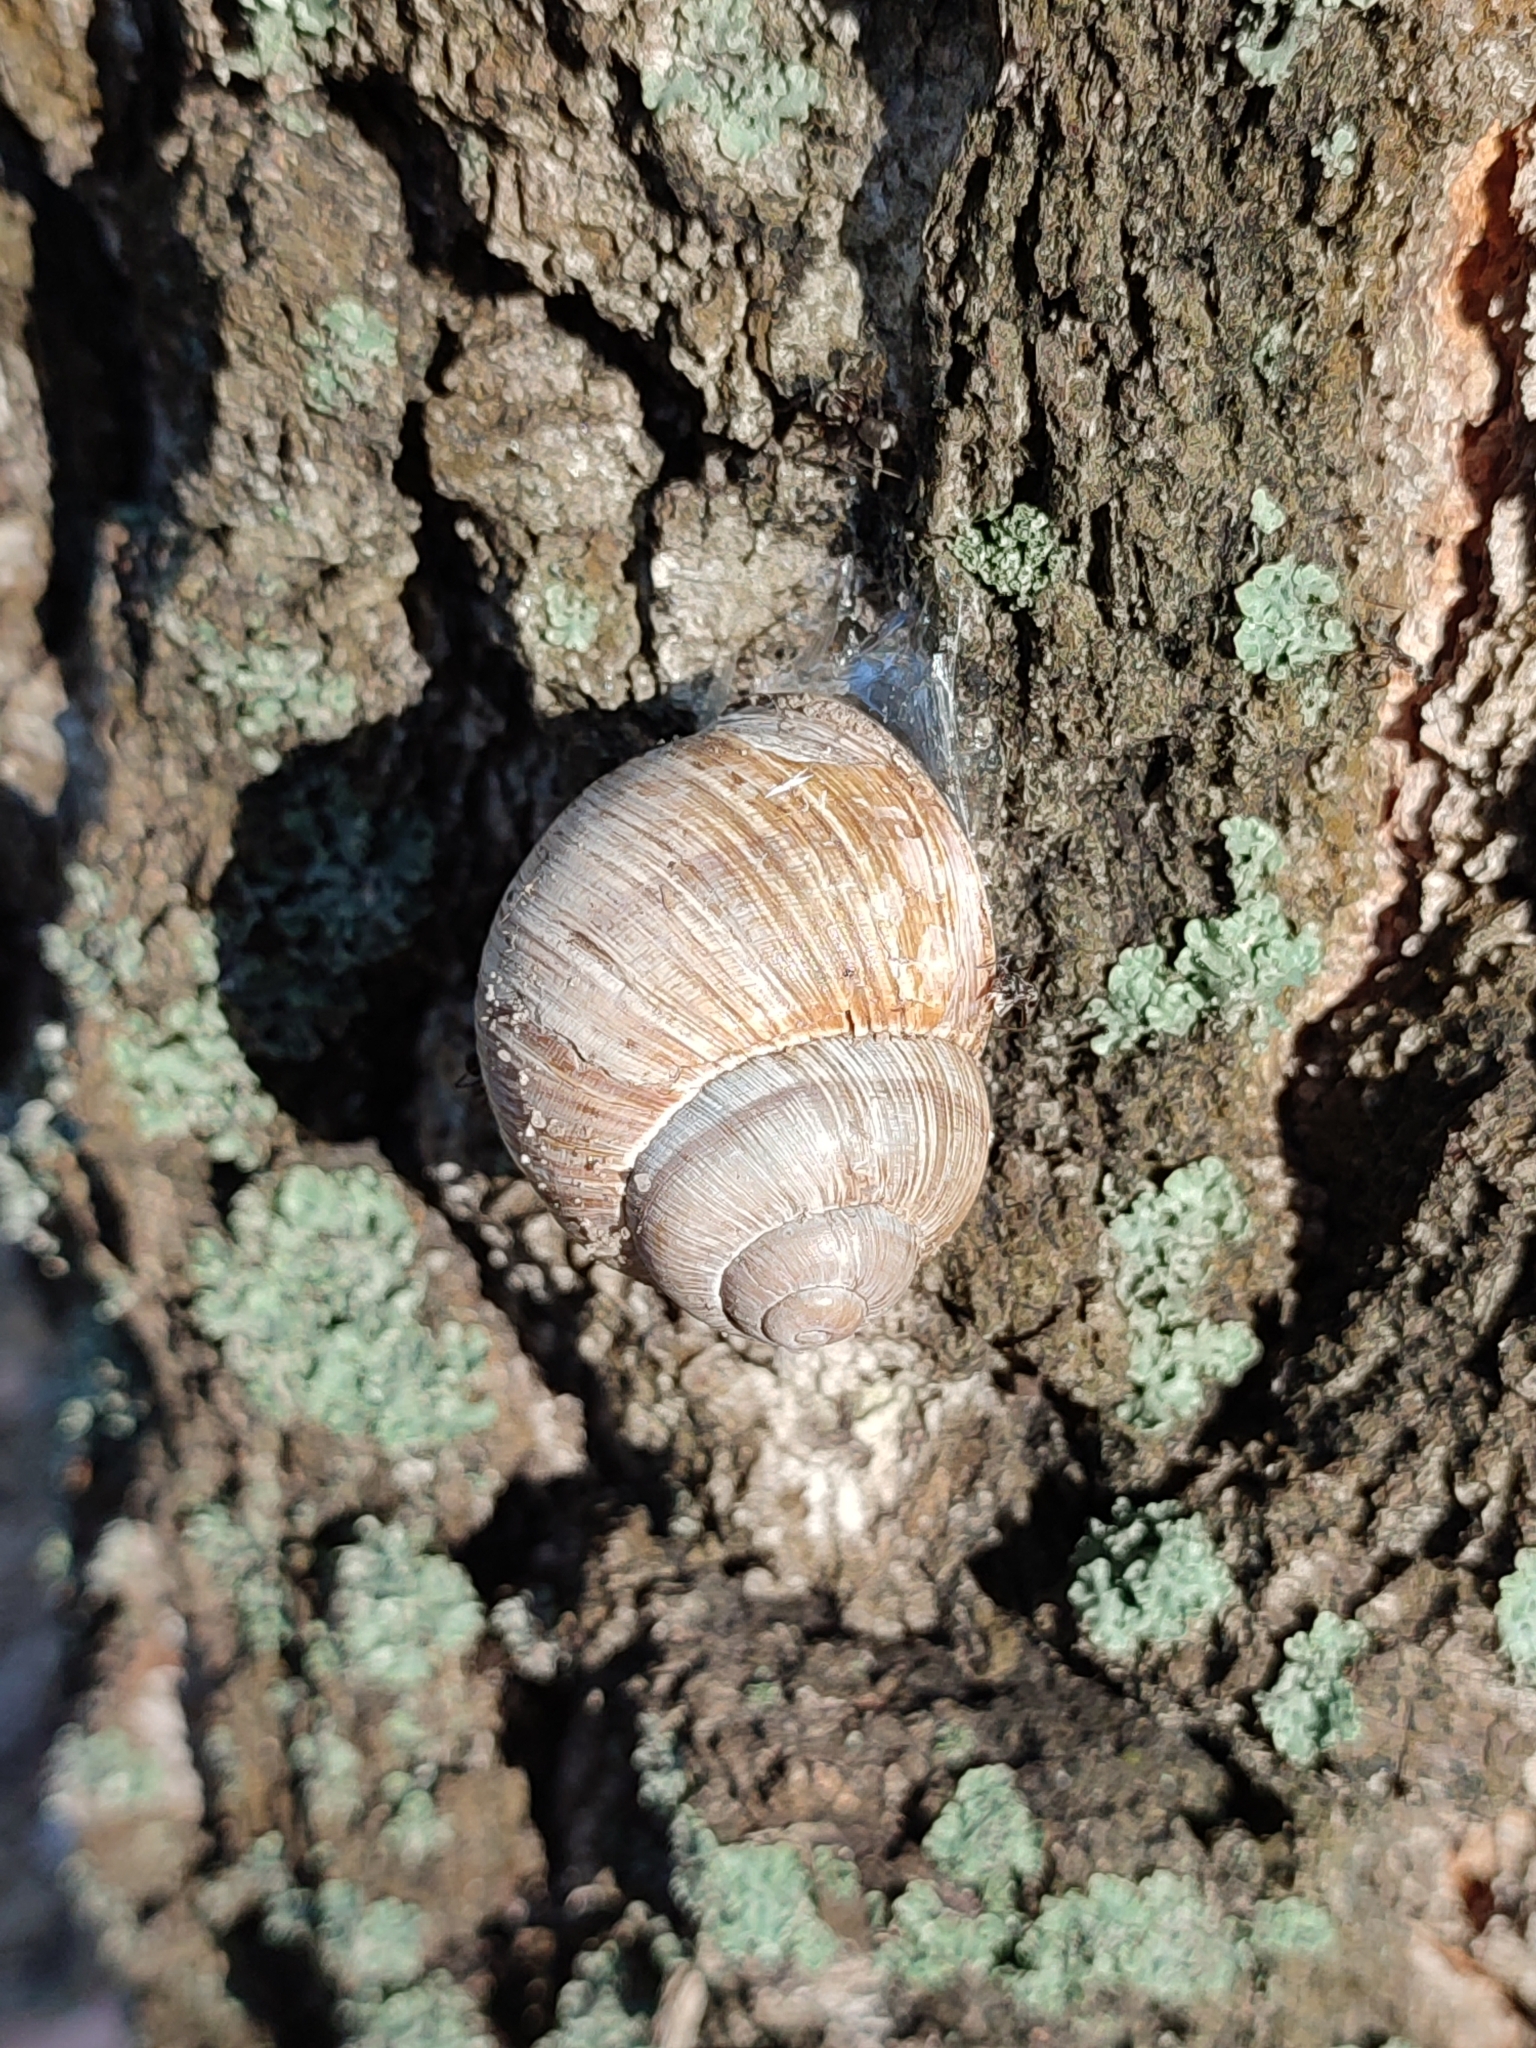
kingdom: Animalia
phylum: Mollusca
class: Gastropoda
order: Stylommatophora
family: Helicidae
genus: Helix
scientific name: Helix pomatia
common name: Roman snail
